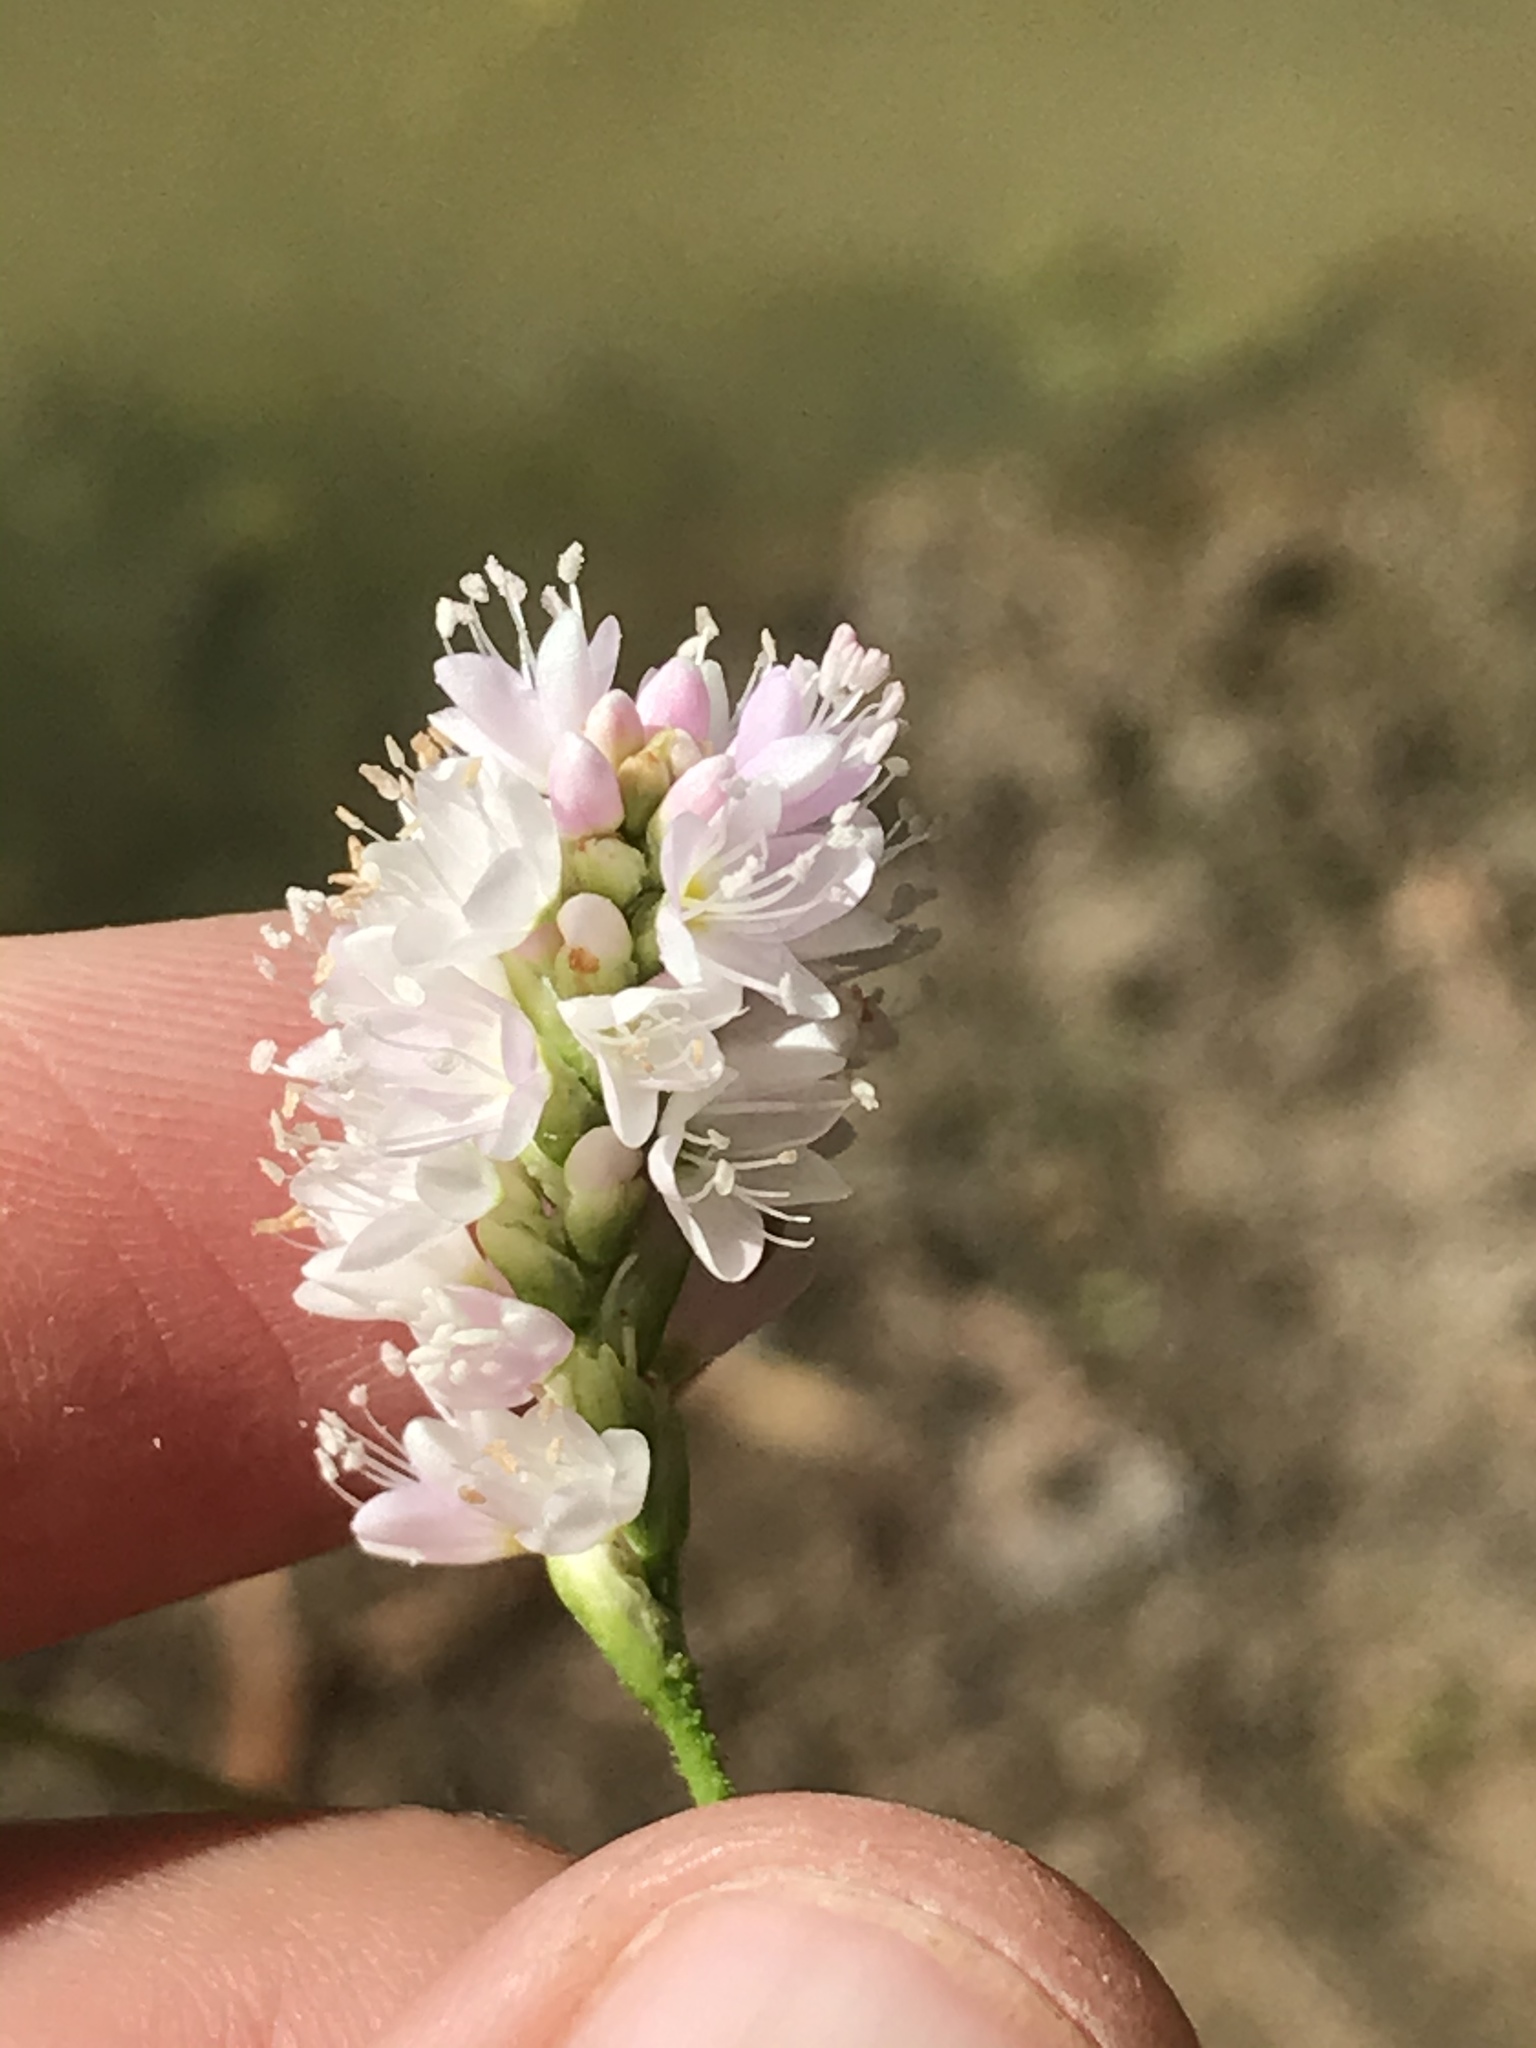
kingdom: Plantae
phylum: Tracheophyta
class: Magnoliopsida
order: Caryophyllales
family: Polygonaceae
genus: Persicaria
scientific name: Persicaria bicornis
